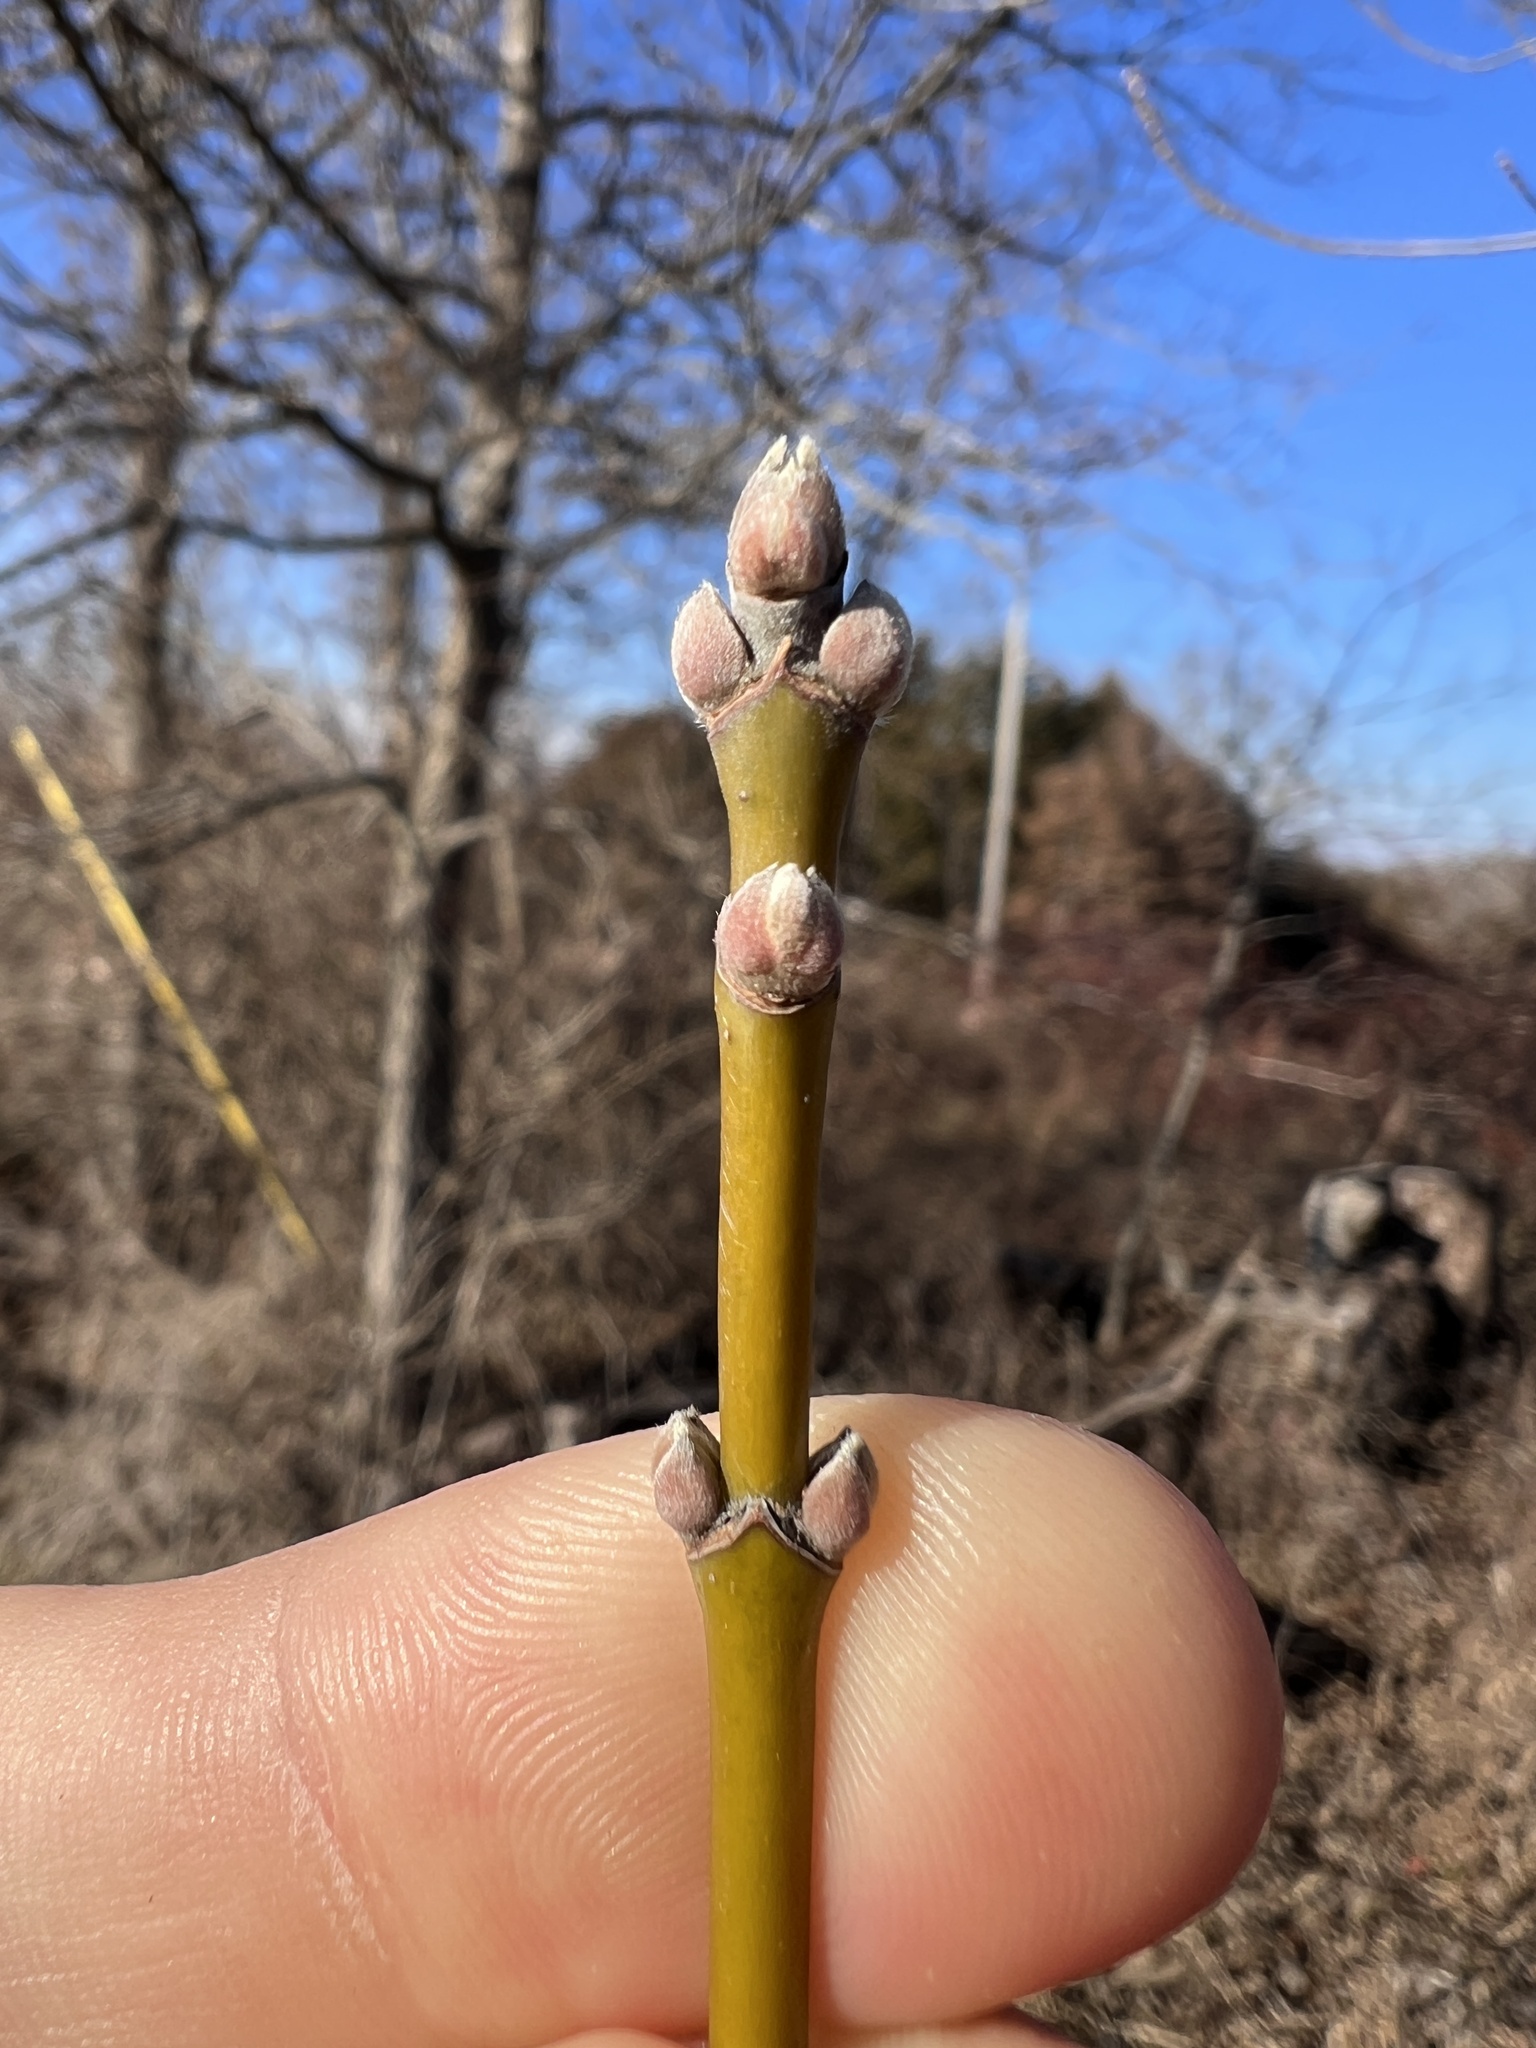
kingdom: Plantae
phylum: Tracheophyta
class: Magnoliopsida
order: Sapindales
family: Sapindaceae
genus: Acer
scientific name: Acer negundo
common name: Ashleaf maple
